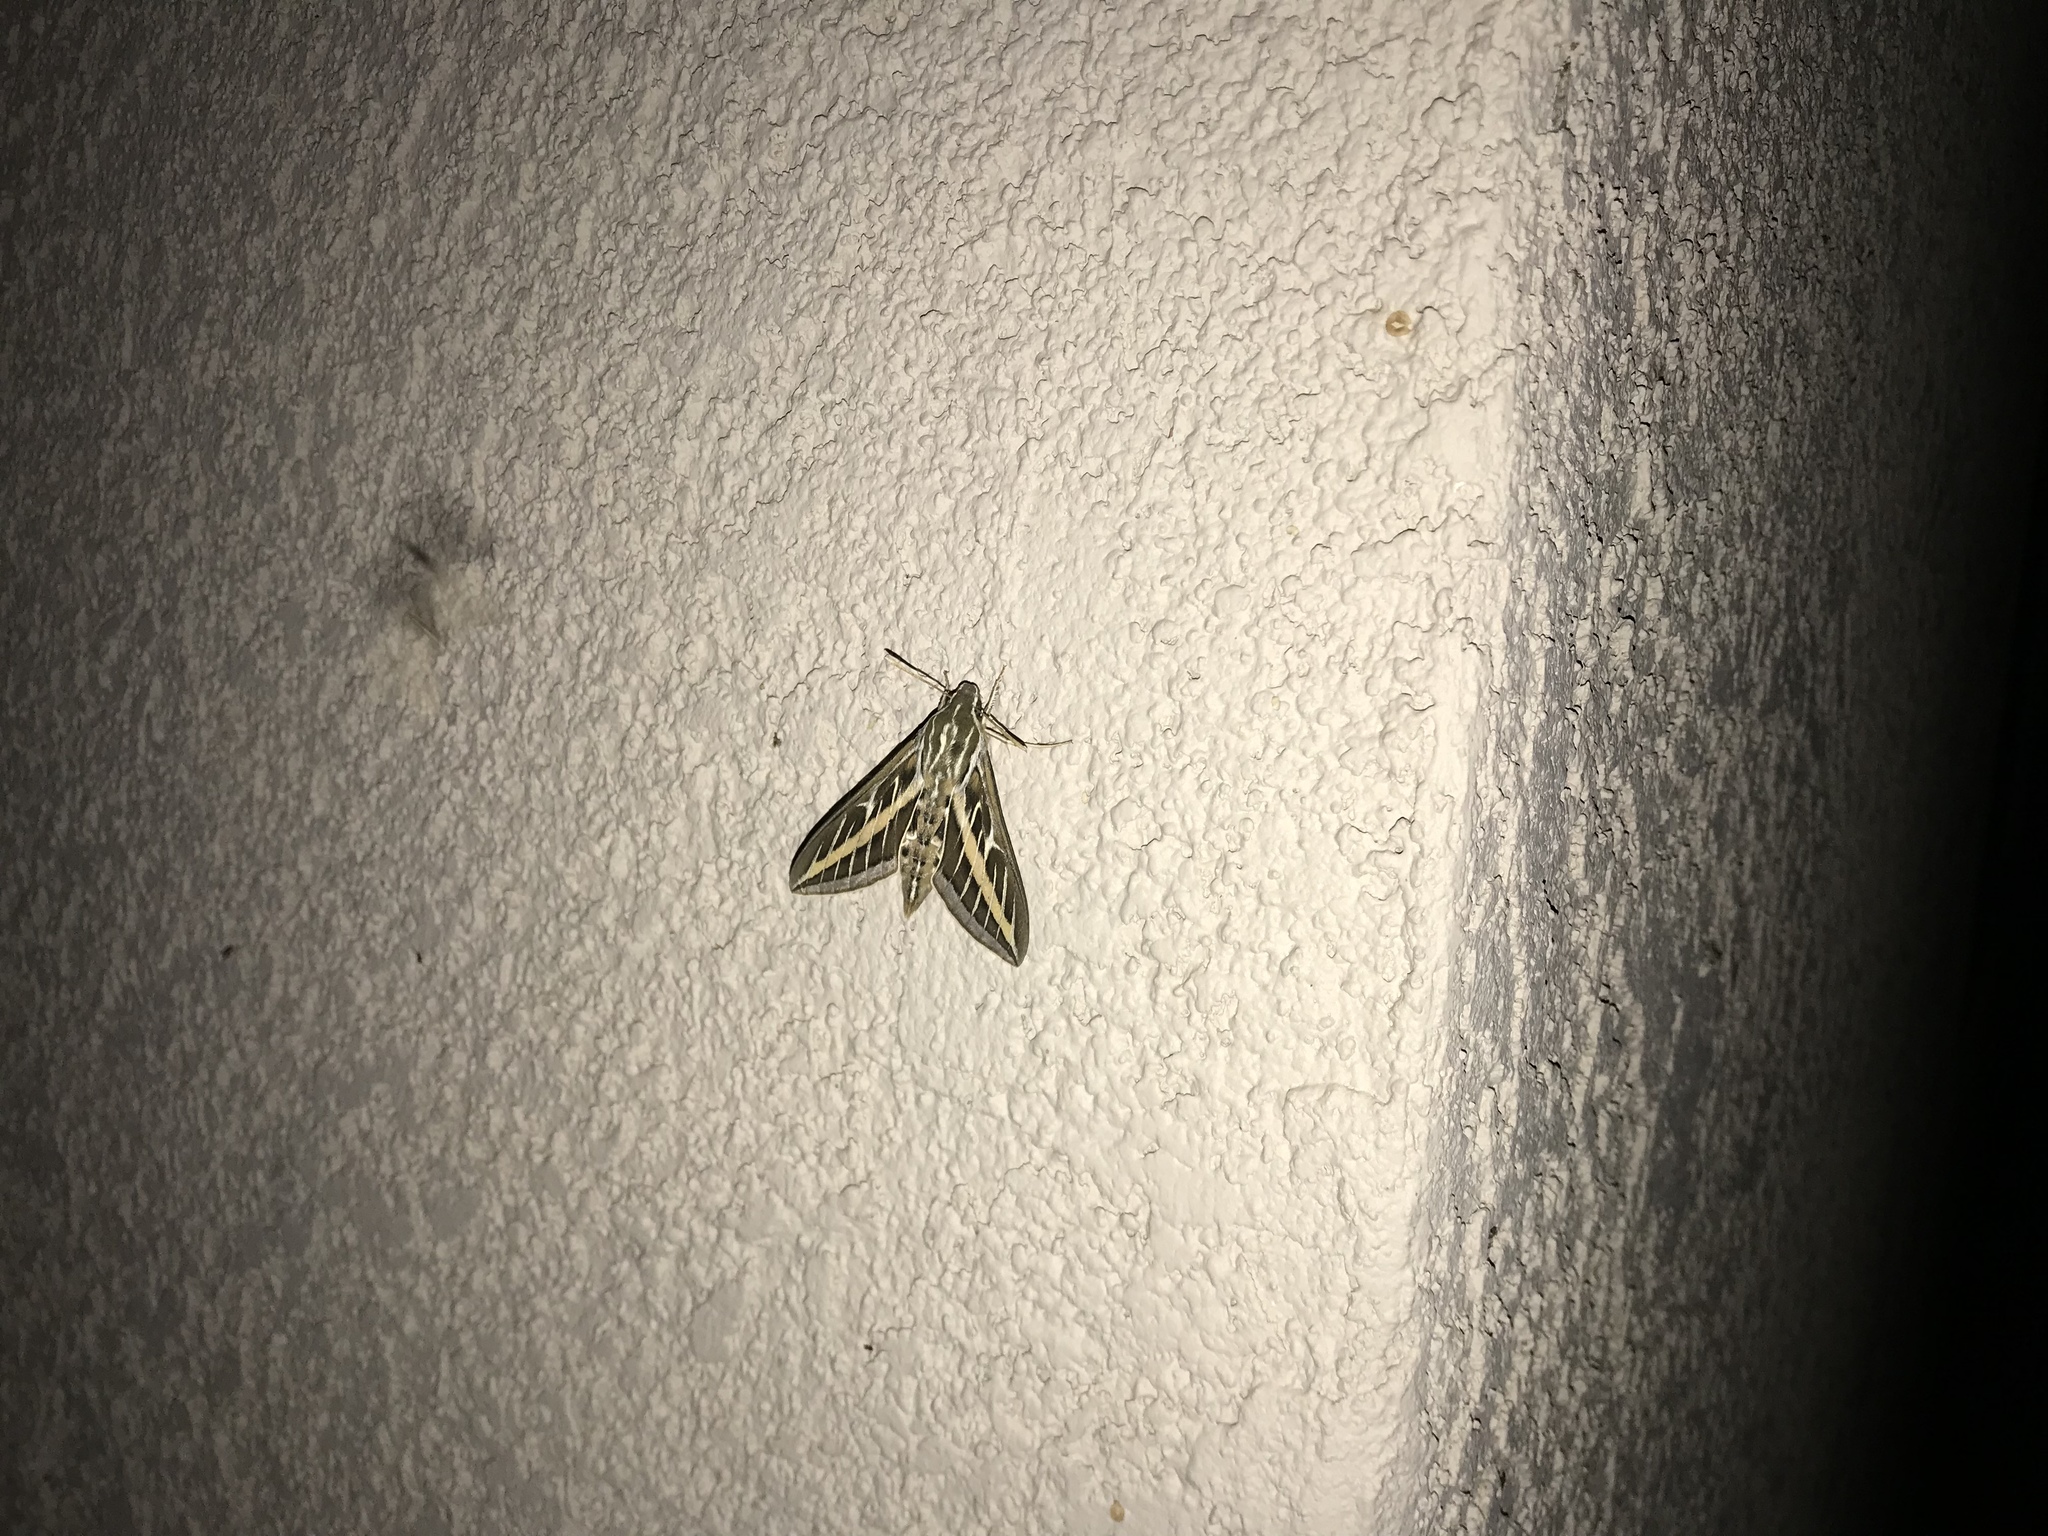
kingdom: Animalia
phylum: Arthropoda
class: Insecta
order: Lepidoptera
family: Sphingidae
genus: Hyles
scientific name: Hyles lineata
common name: White-lined sphinx
